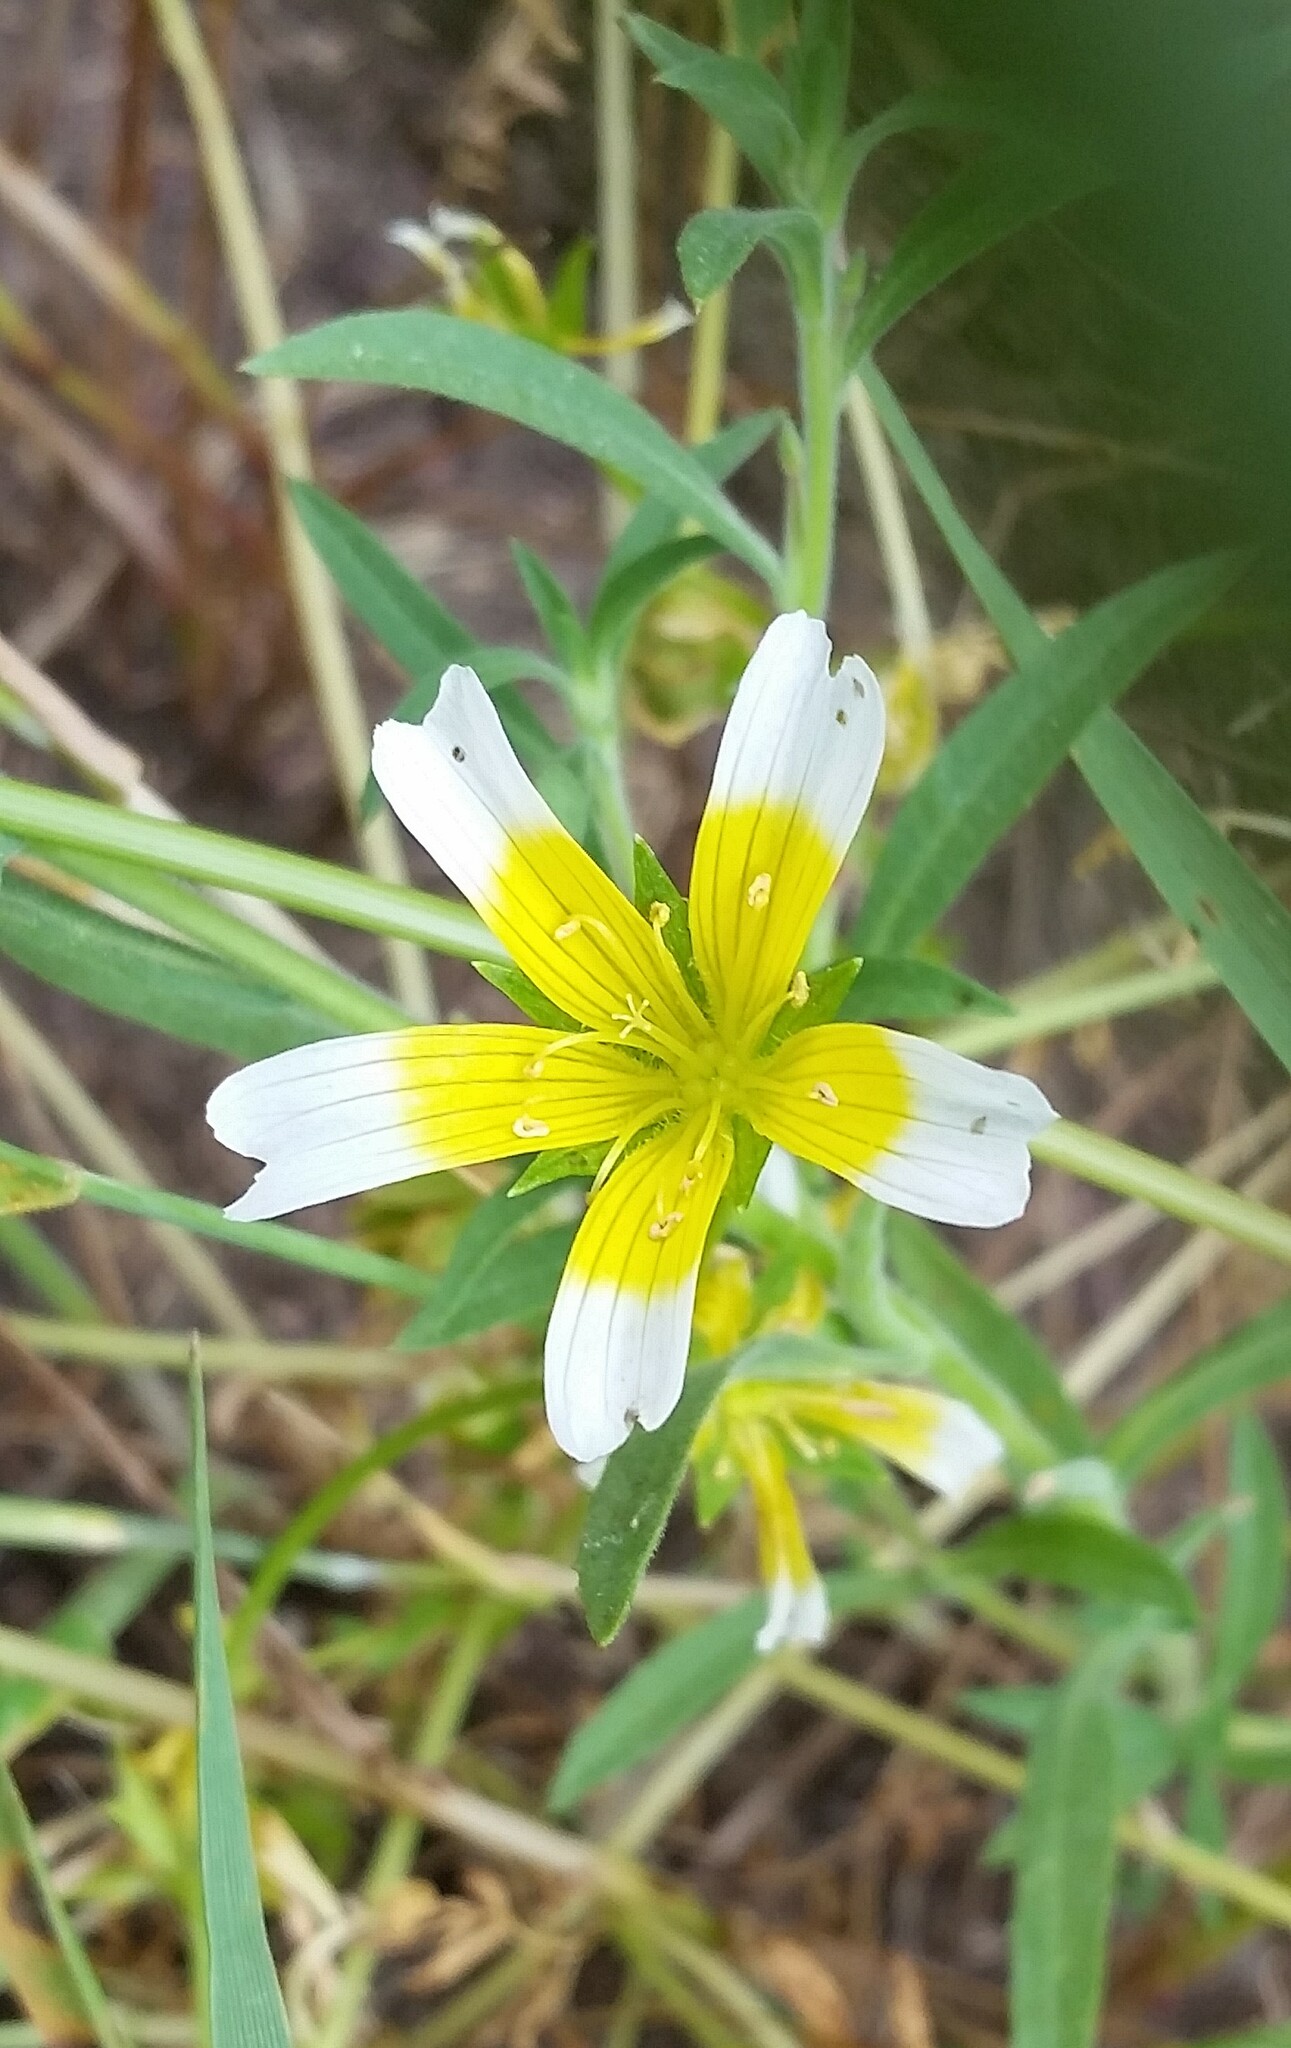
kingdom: Plantae
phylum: Tracheophyta
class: Magnoliopsida
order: Brassicales
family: Limnanthaceae
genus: Limnanthes
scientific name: Limnanthes douglasii
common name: Meadow-foam
